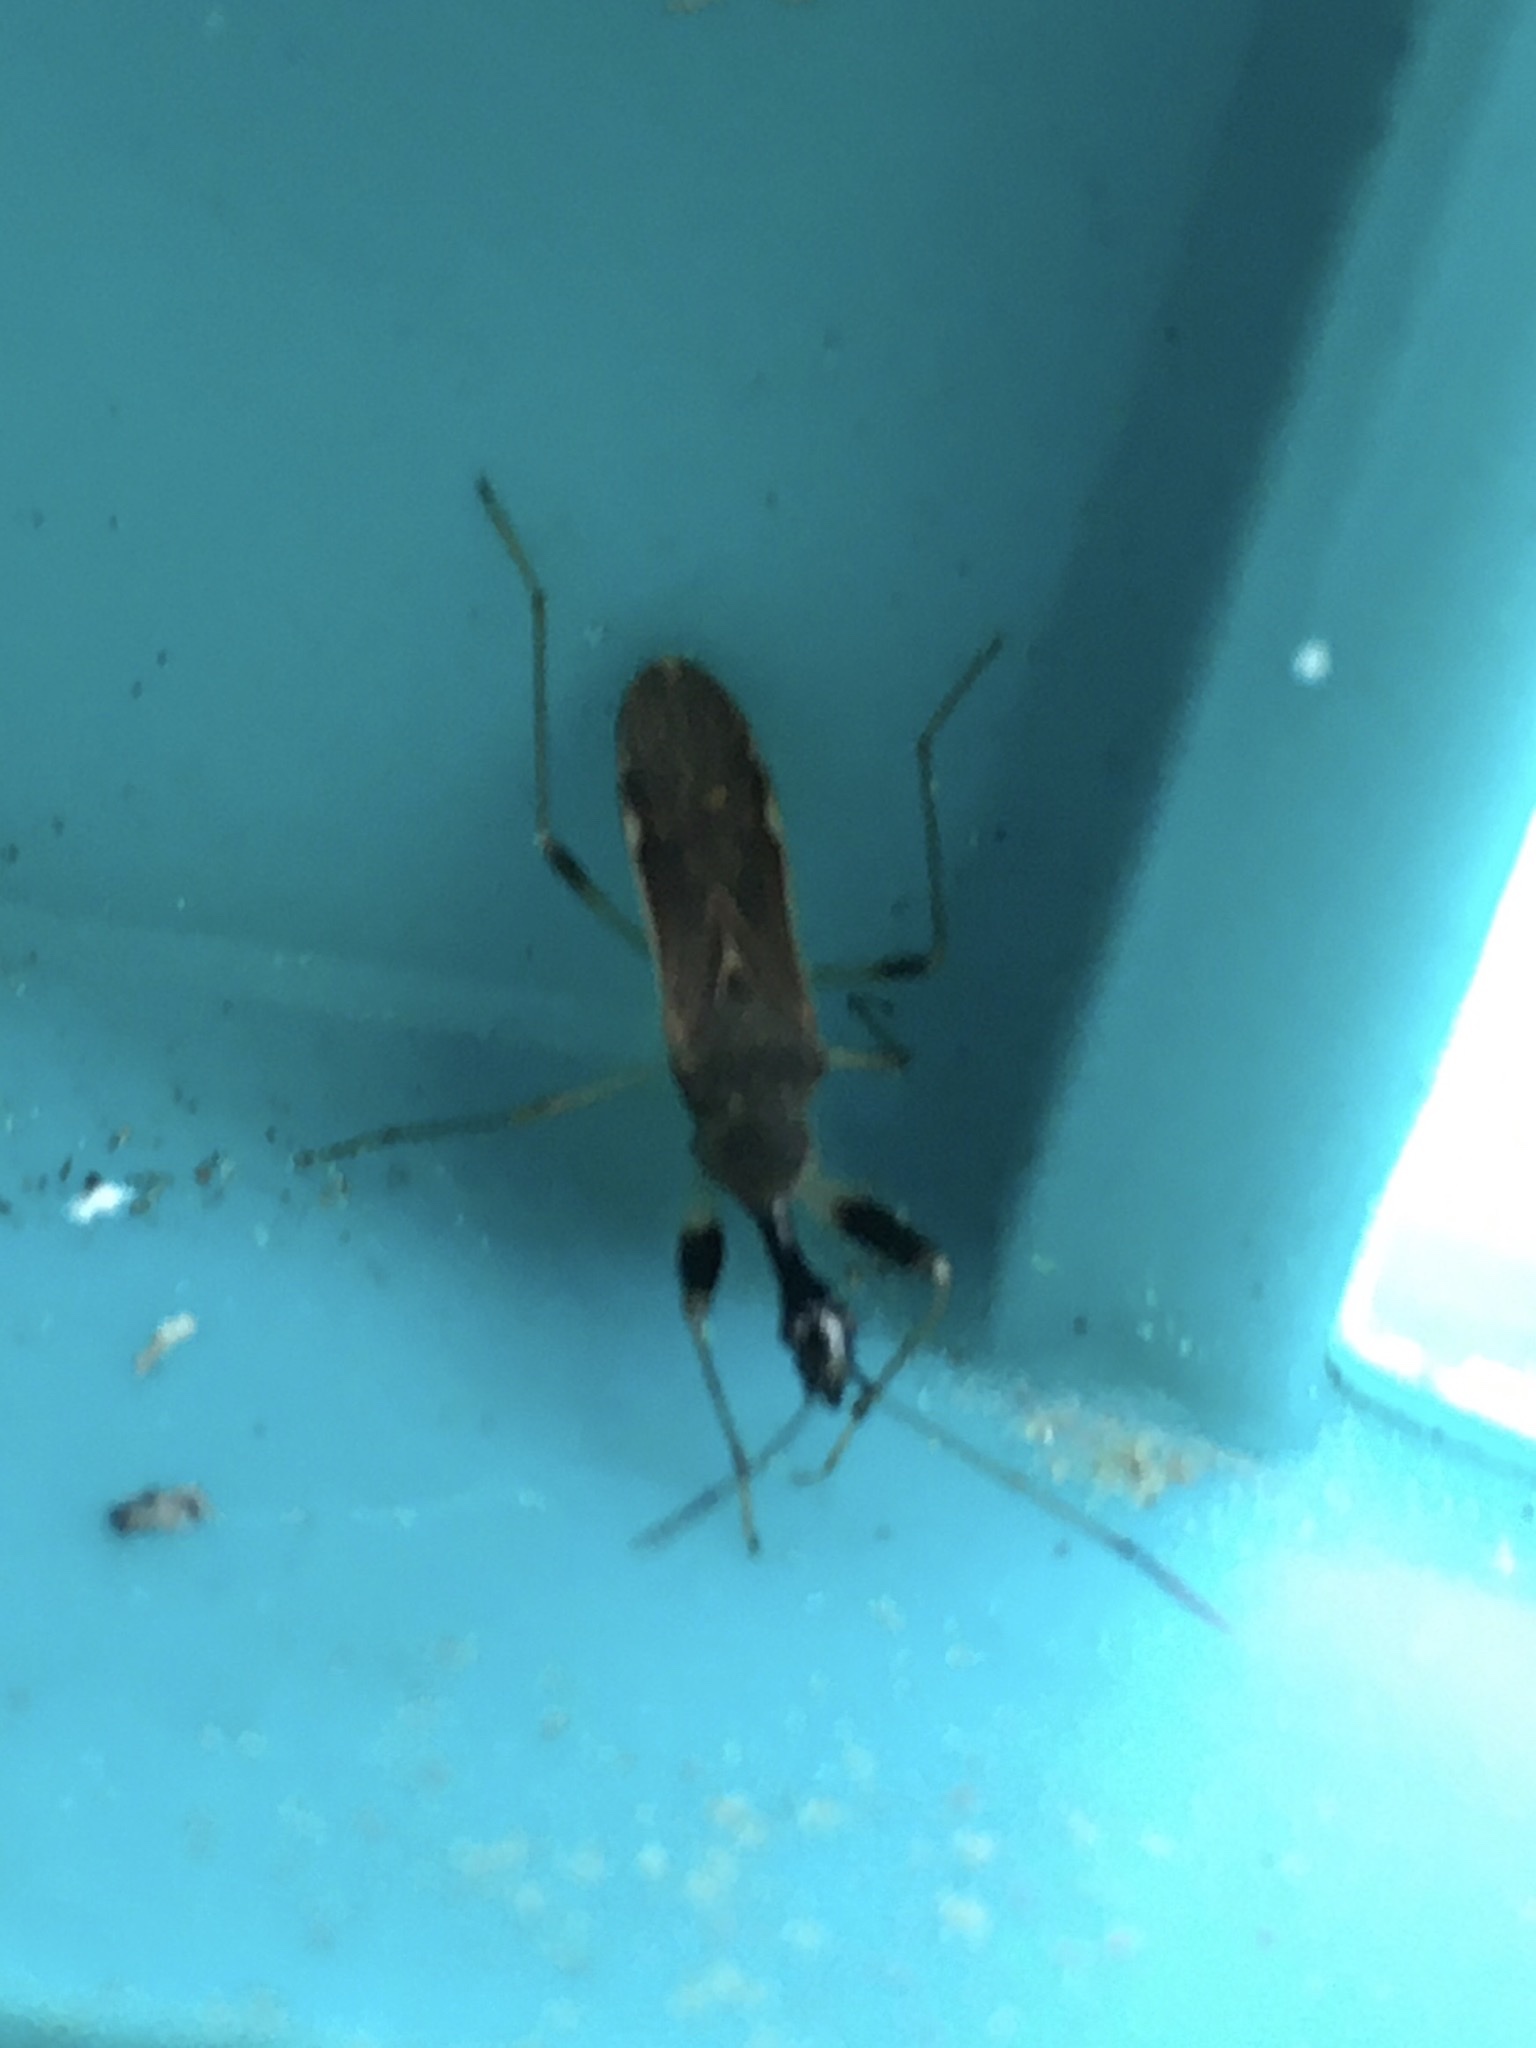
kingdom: Animalia
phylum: Arthropoda
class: Insecta
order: Hemiptera
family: Rhyparochromidae
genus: Myodocha
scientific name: Myodocha serripes
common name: Long-necked seed bug
